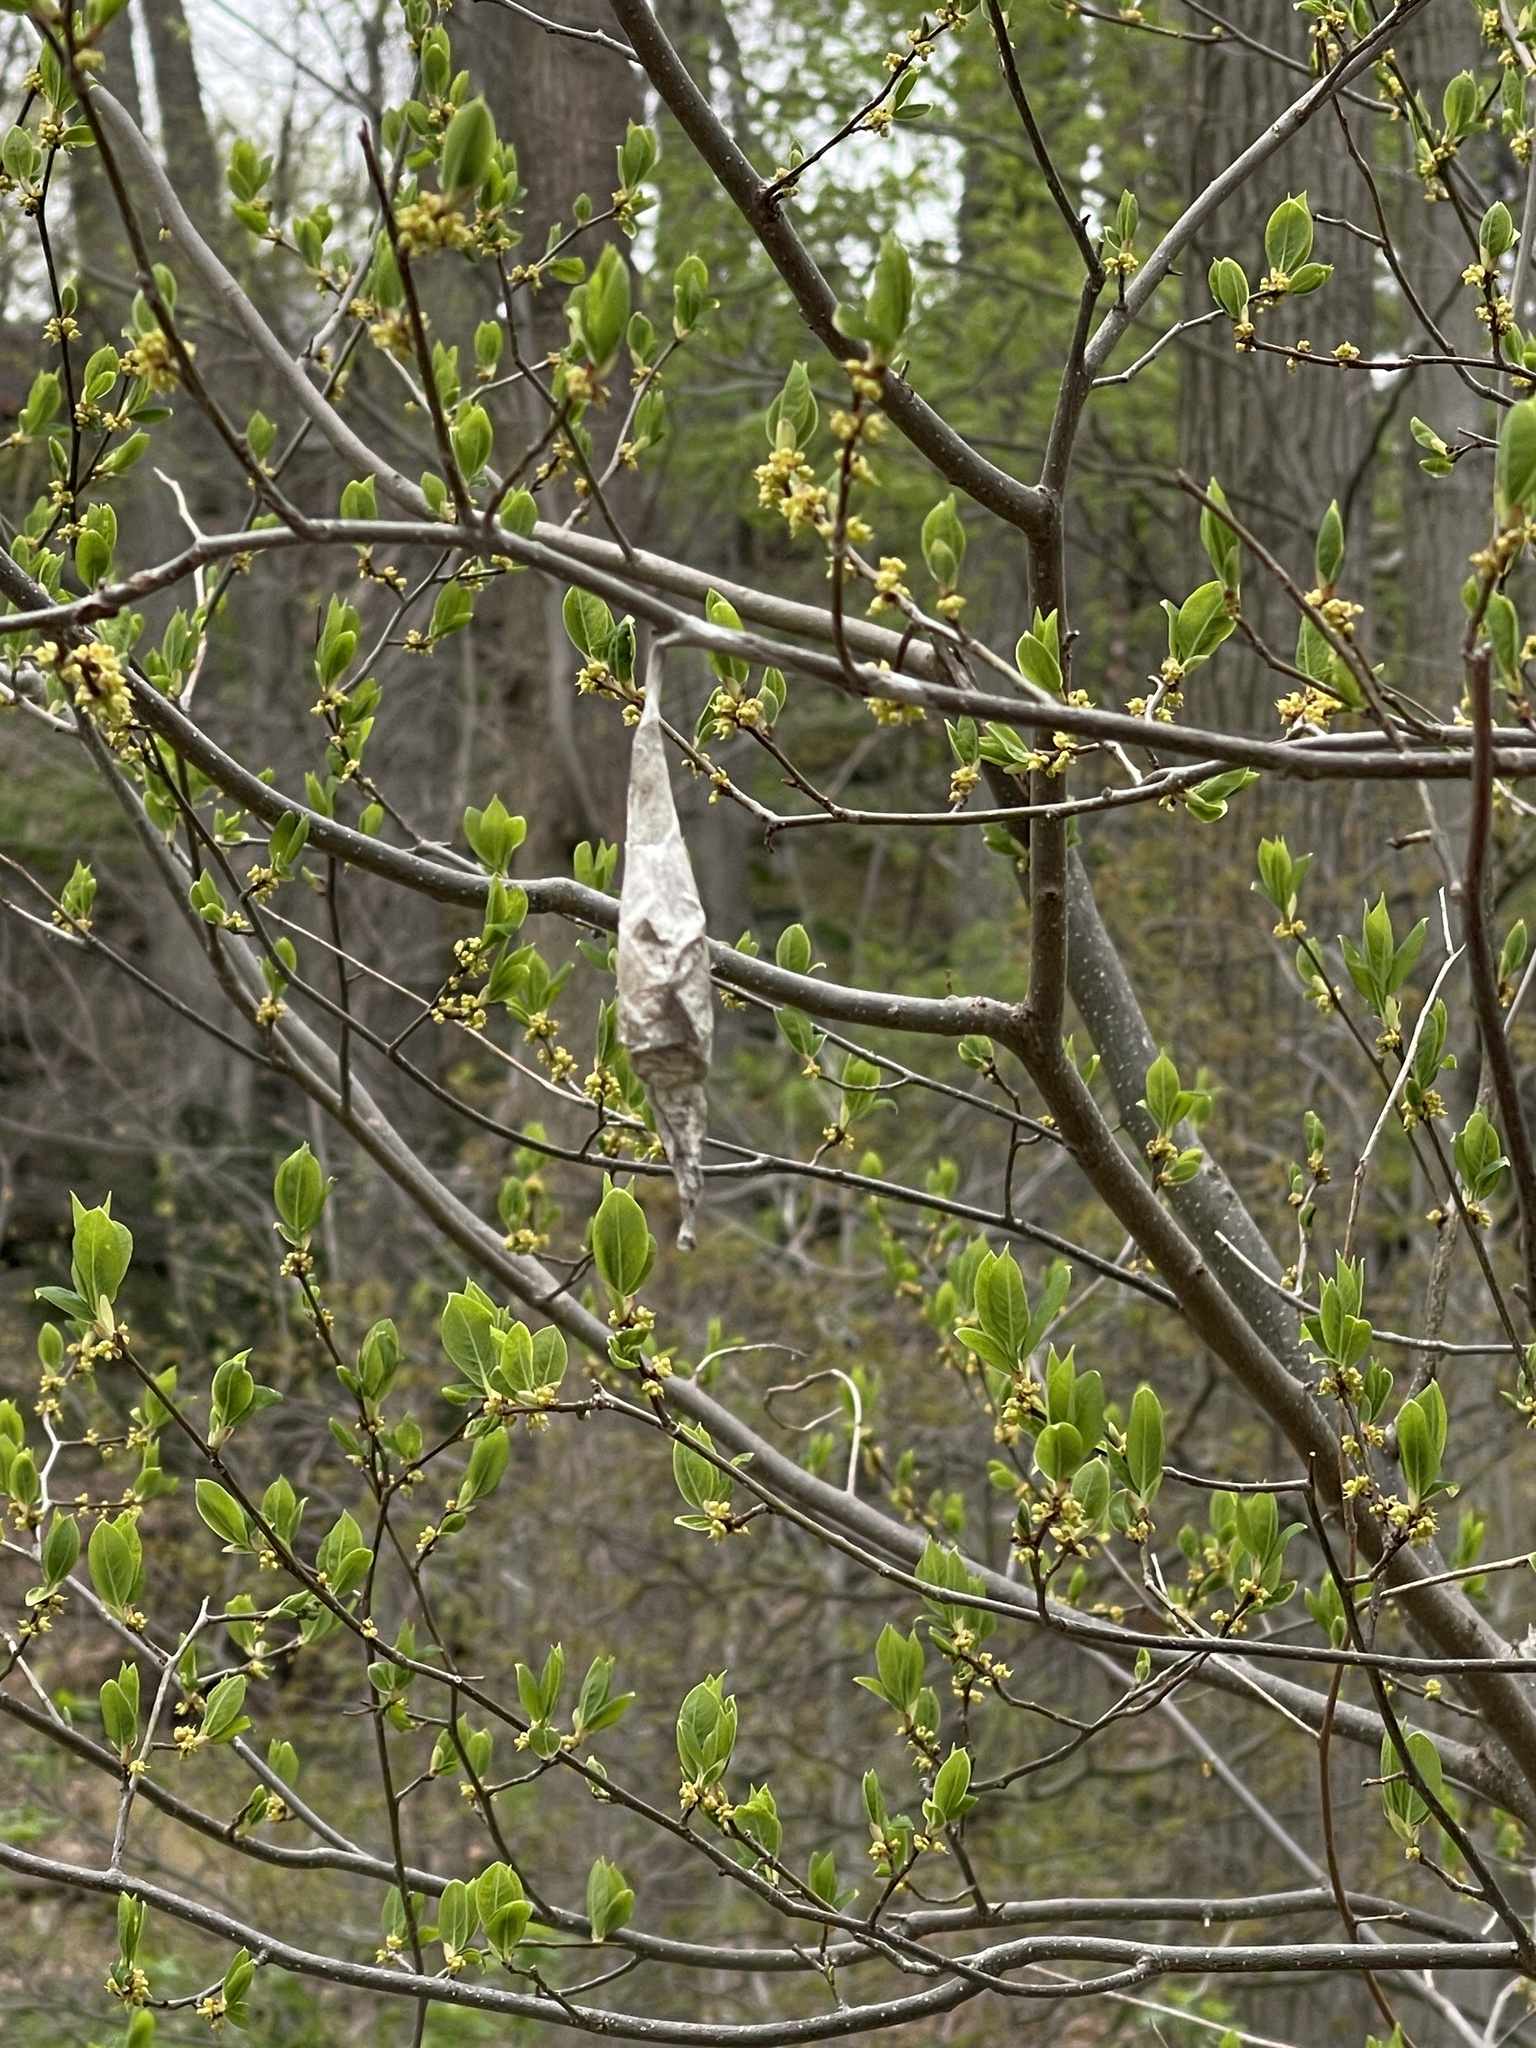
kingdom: Animalia
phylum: Arthropoda
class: Insecta
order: Lepidoptera
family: Saturniidae
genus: Callosamia
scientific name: Callosamia promethea
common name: Promethea silkmoth
